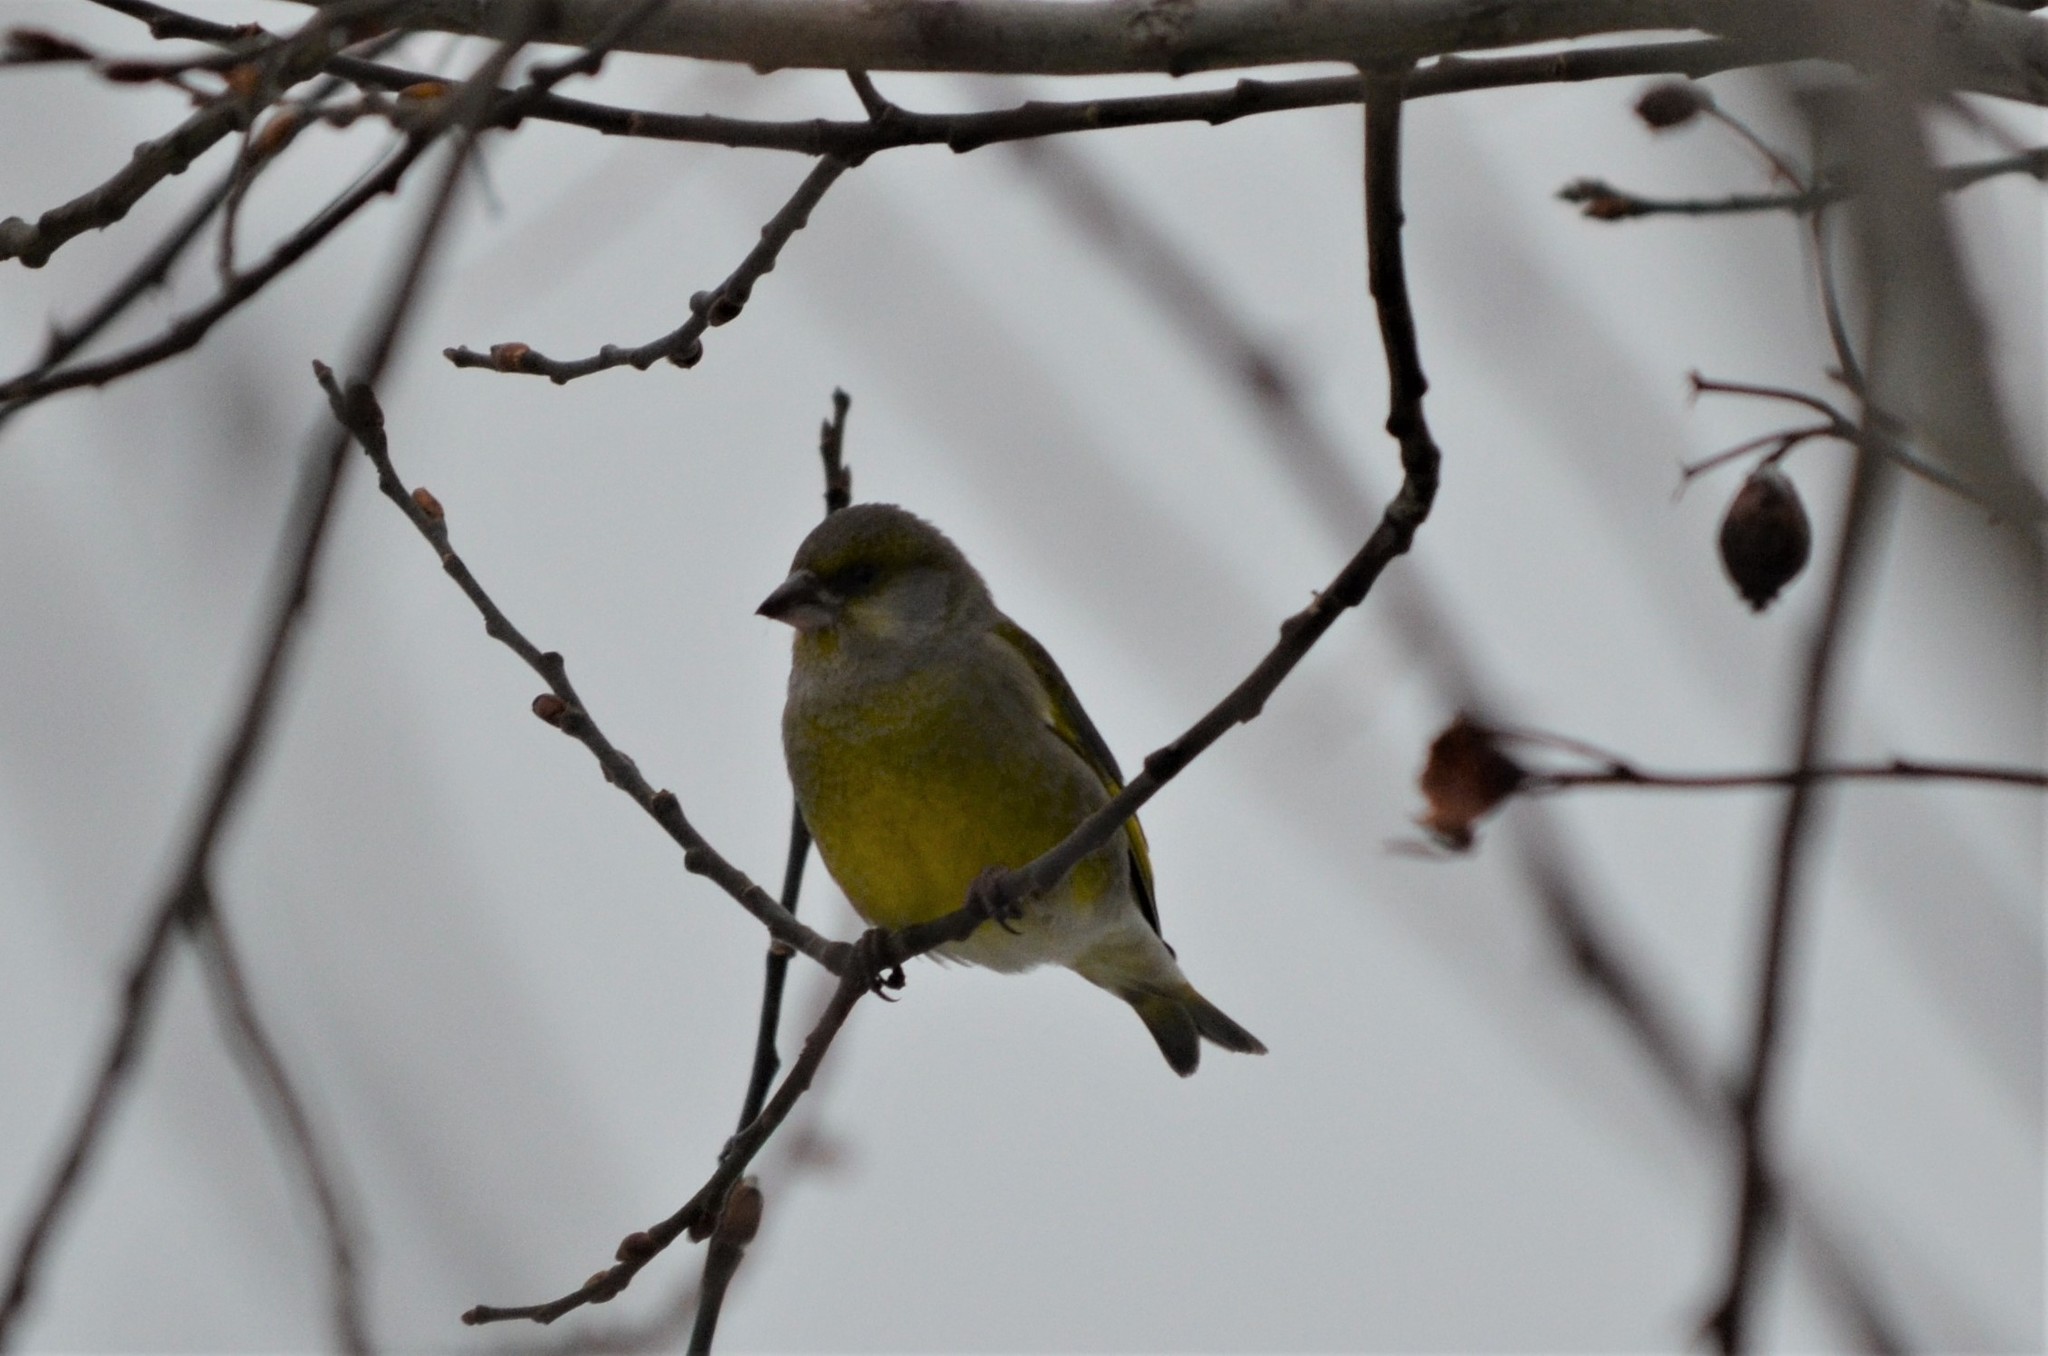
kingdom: Plantae
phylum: Tracheophyta
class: Liliopsida
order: Poales
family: Poaceae
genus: Chloris
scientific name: Chloris chloris
